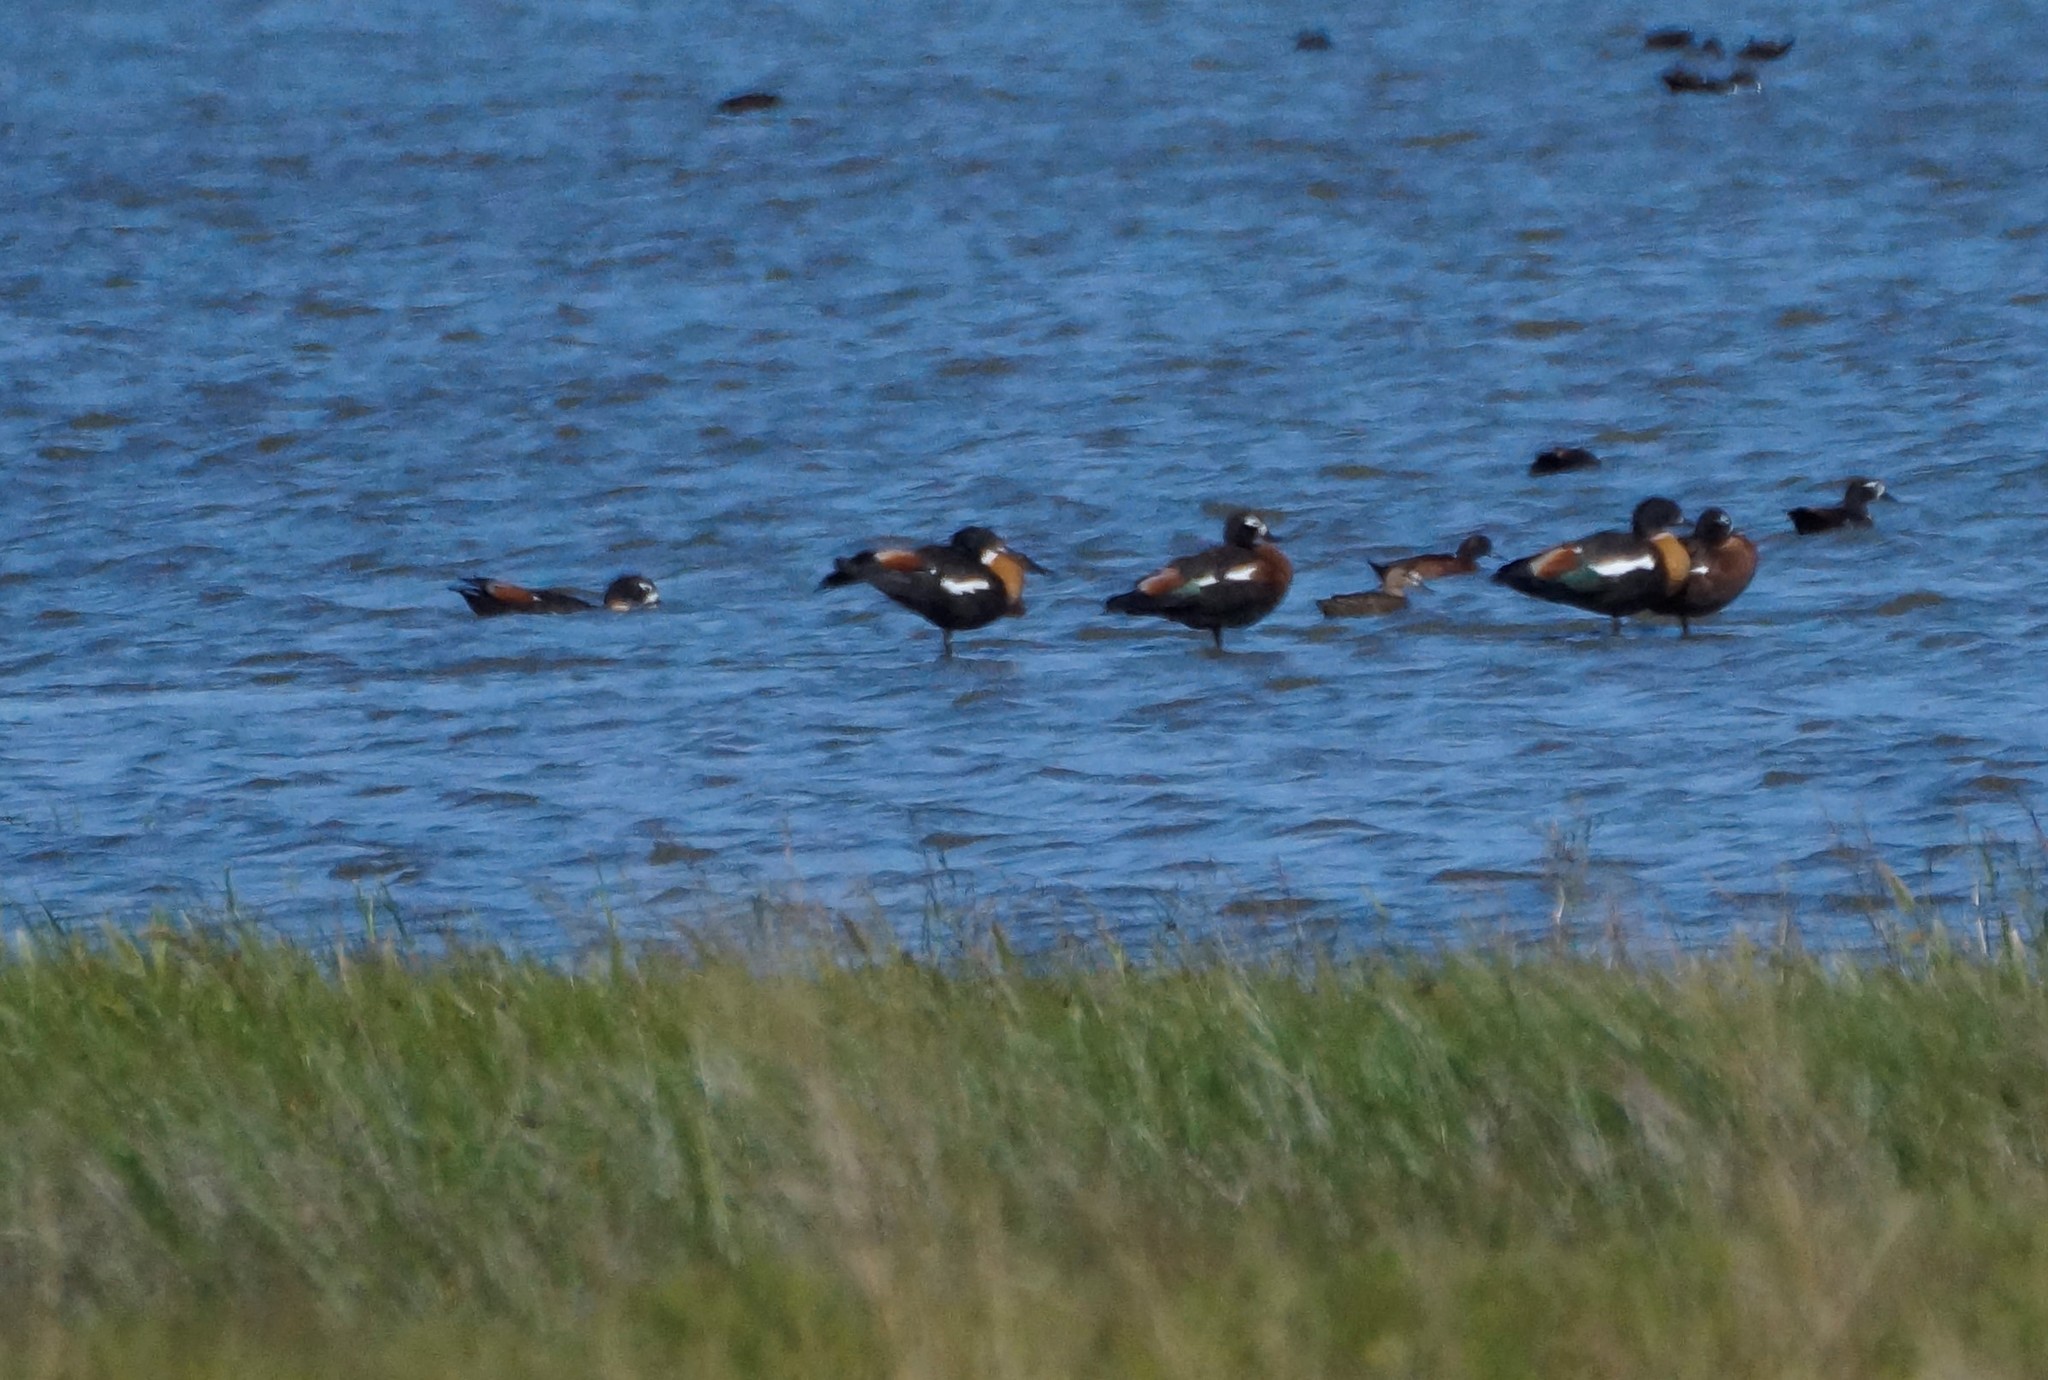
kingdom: Animalia
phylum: Chordata
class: Aves
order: Anseriformes
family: Anatidae
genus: Tadorna
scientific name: Tadorna tadornoides
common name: Australian shelduck
